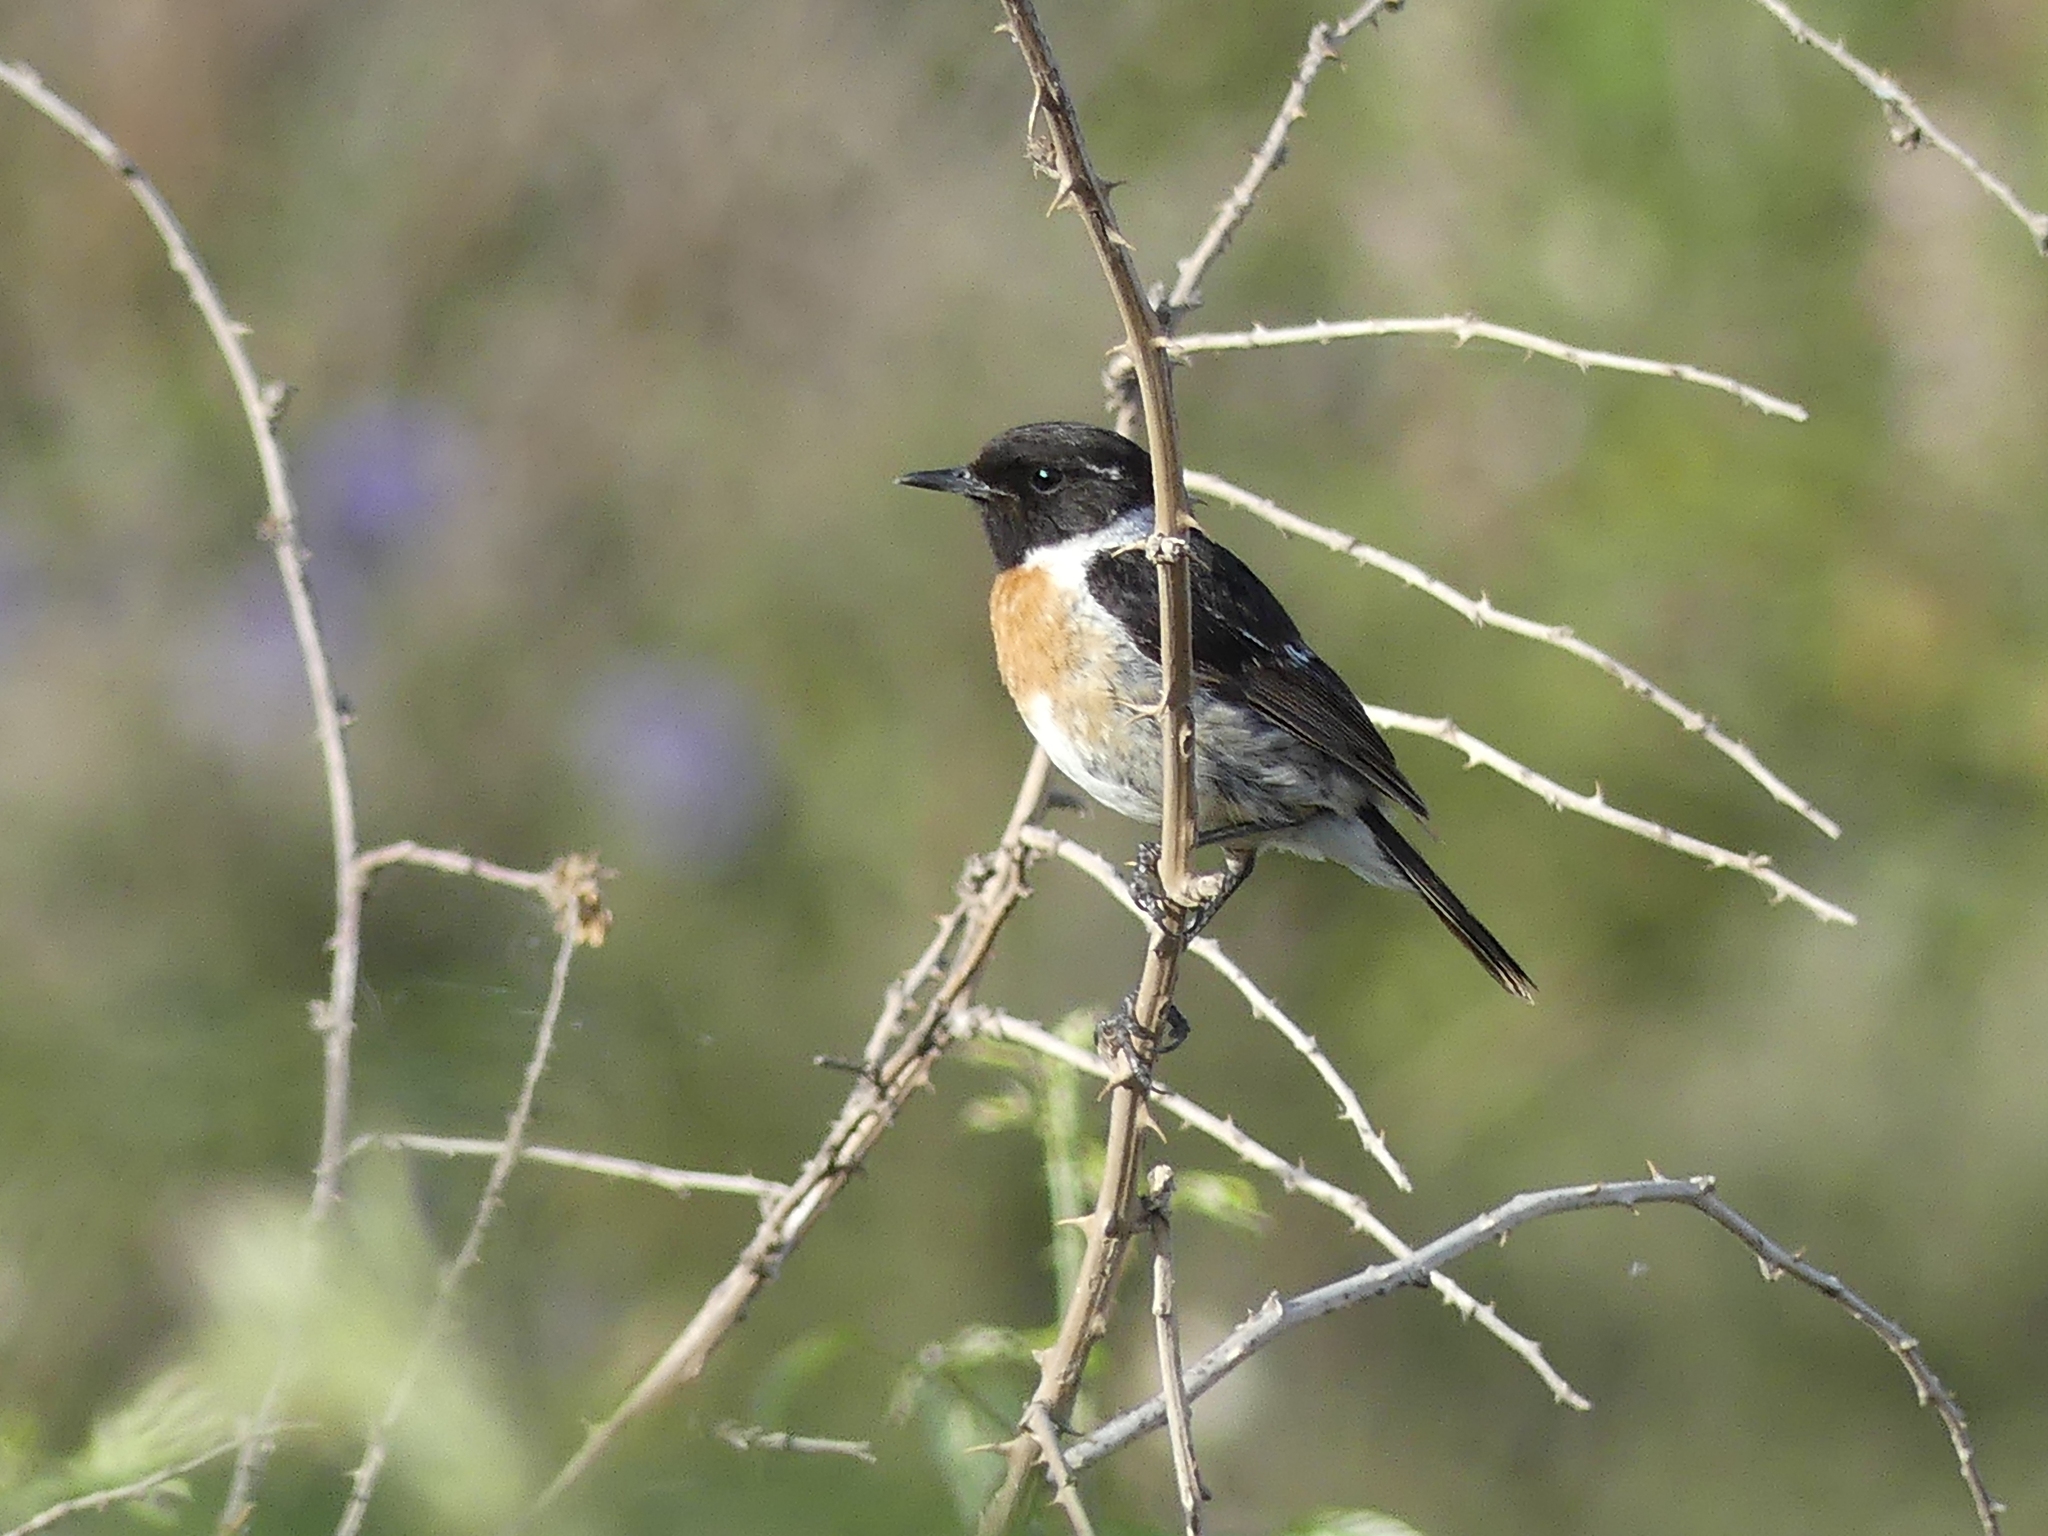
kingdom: Animalia
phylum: Chordata
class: Aves
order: Passeriformes
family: Muscicapidae
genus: Saxicola
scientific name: Saxicola rubicola
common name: European stonechat
